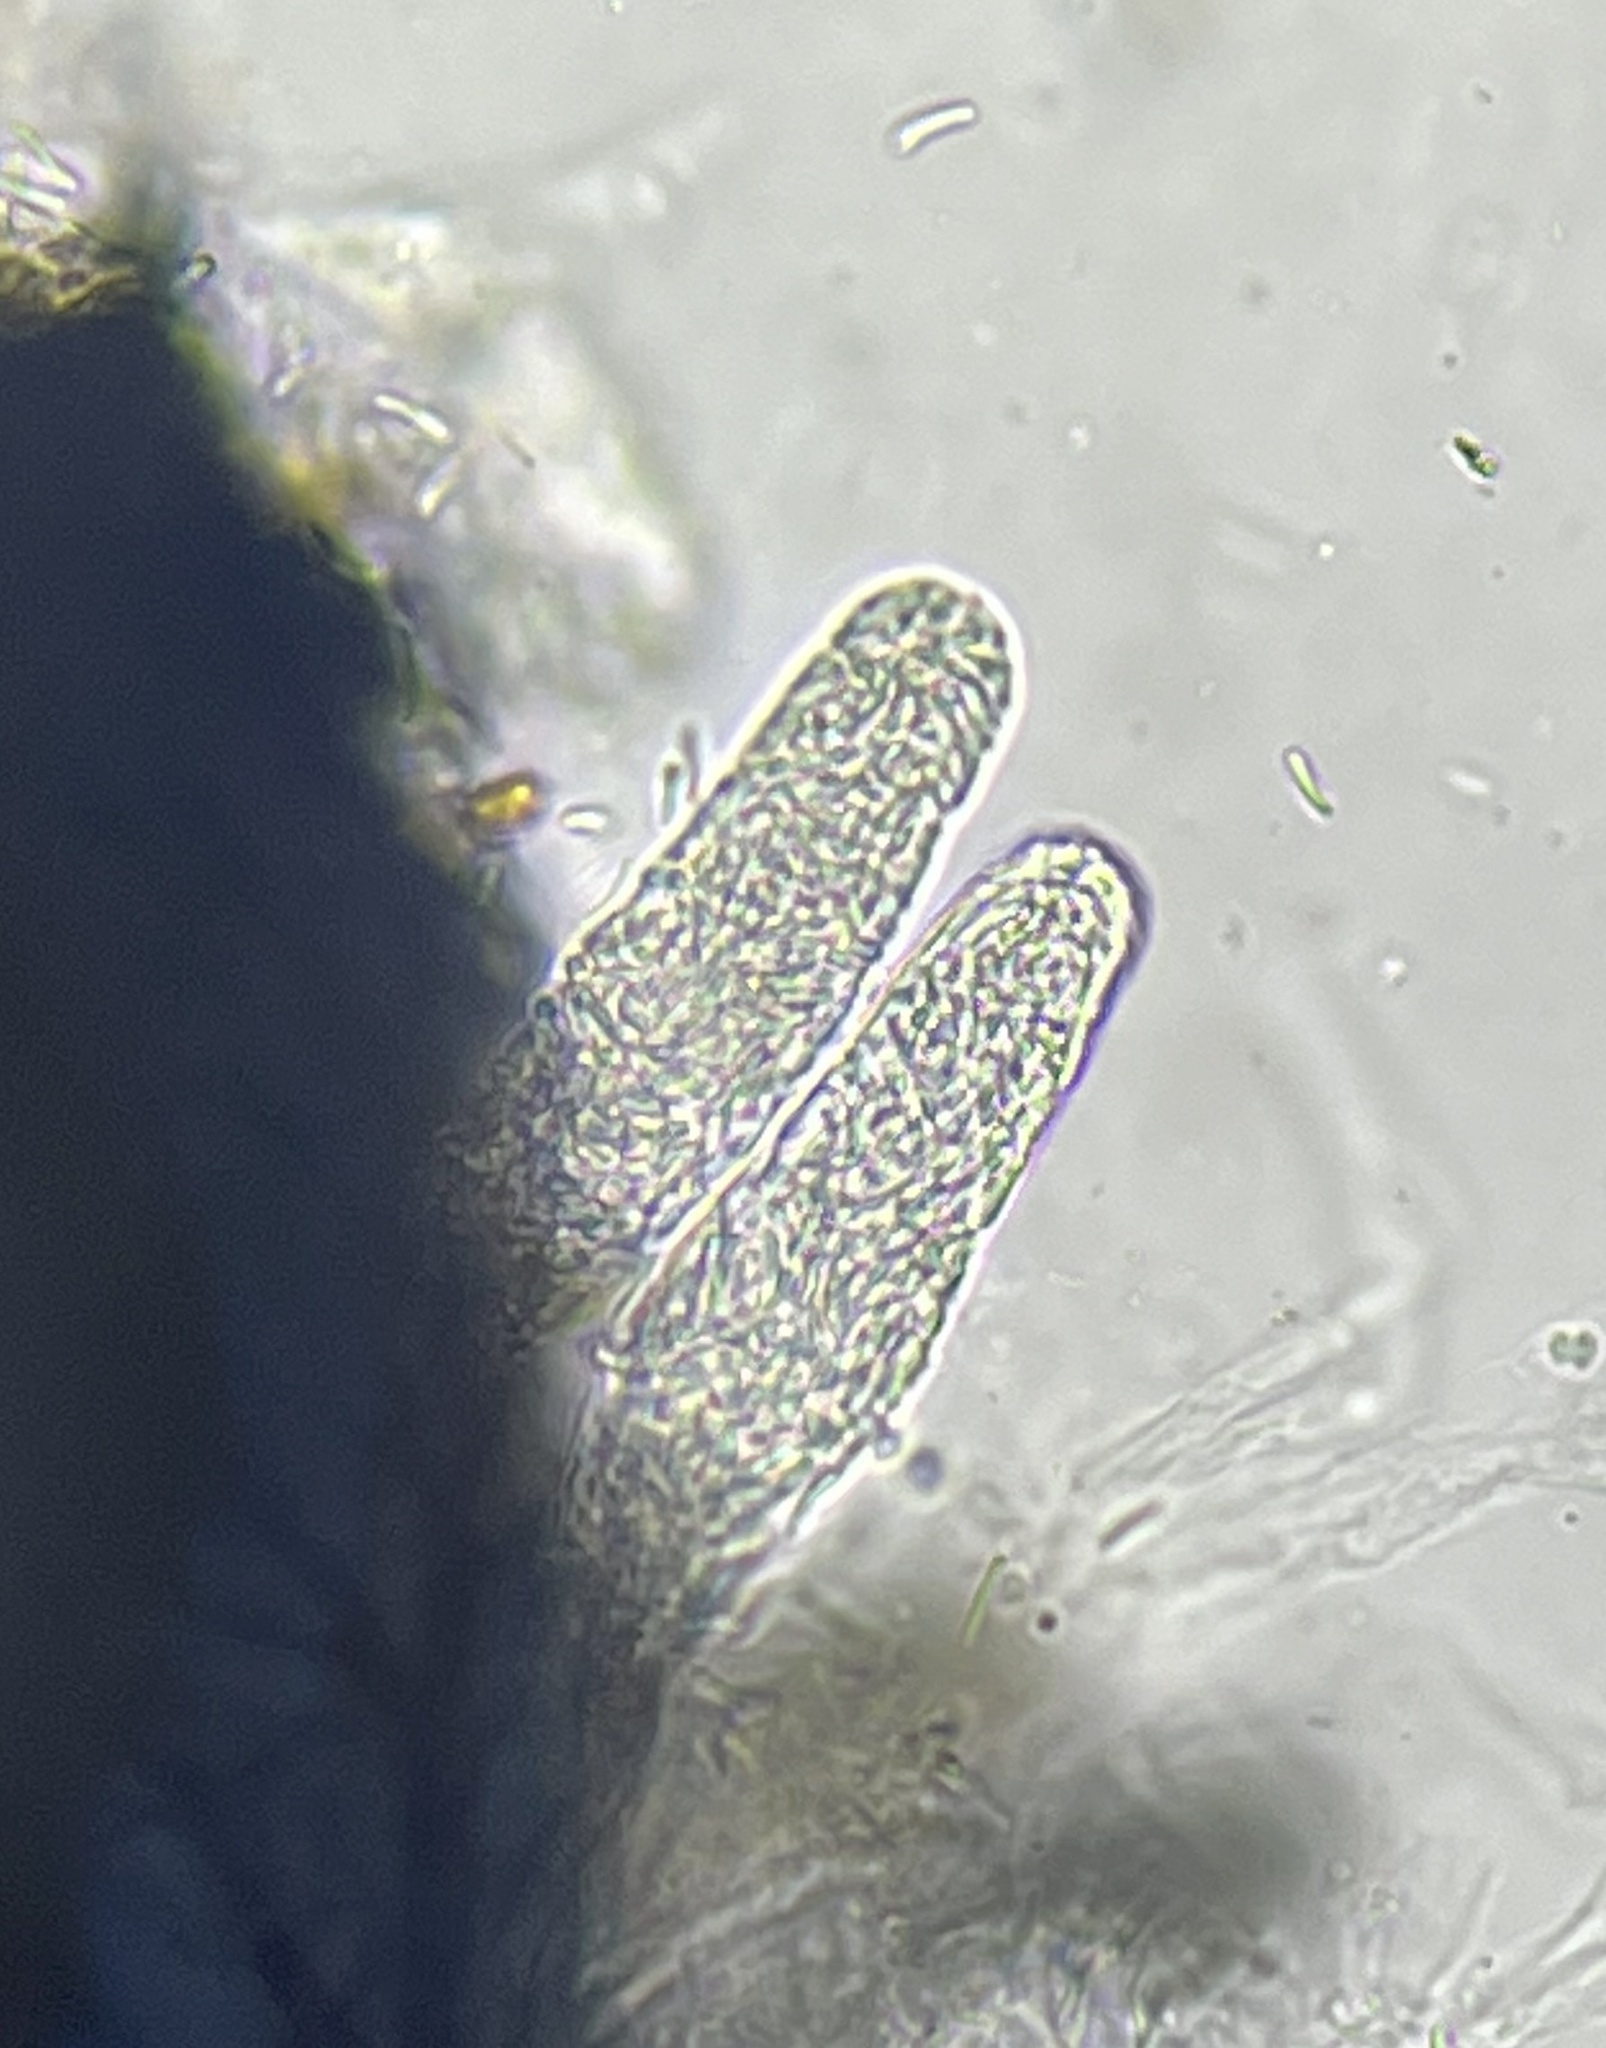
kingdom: Fungi
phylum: Ascomycota
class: Sordariomycetes
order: Coronophorales
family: Nitschkiaceae
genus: Fracchiaea
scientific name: Fracchiaea broomeana
